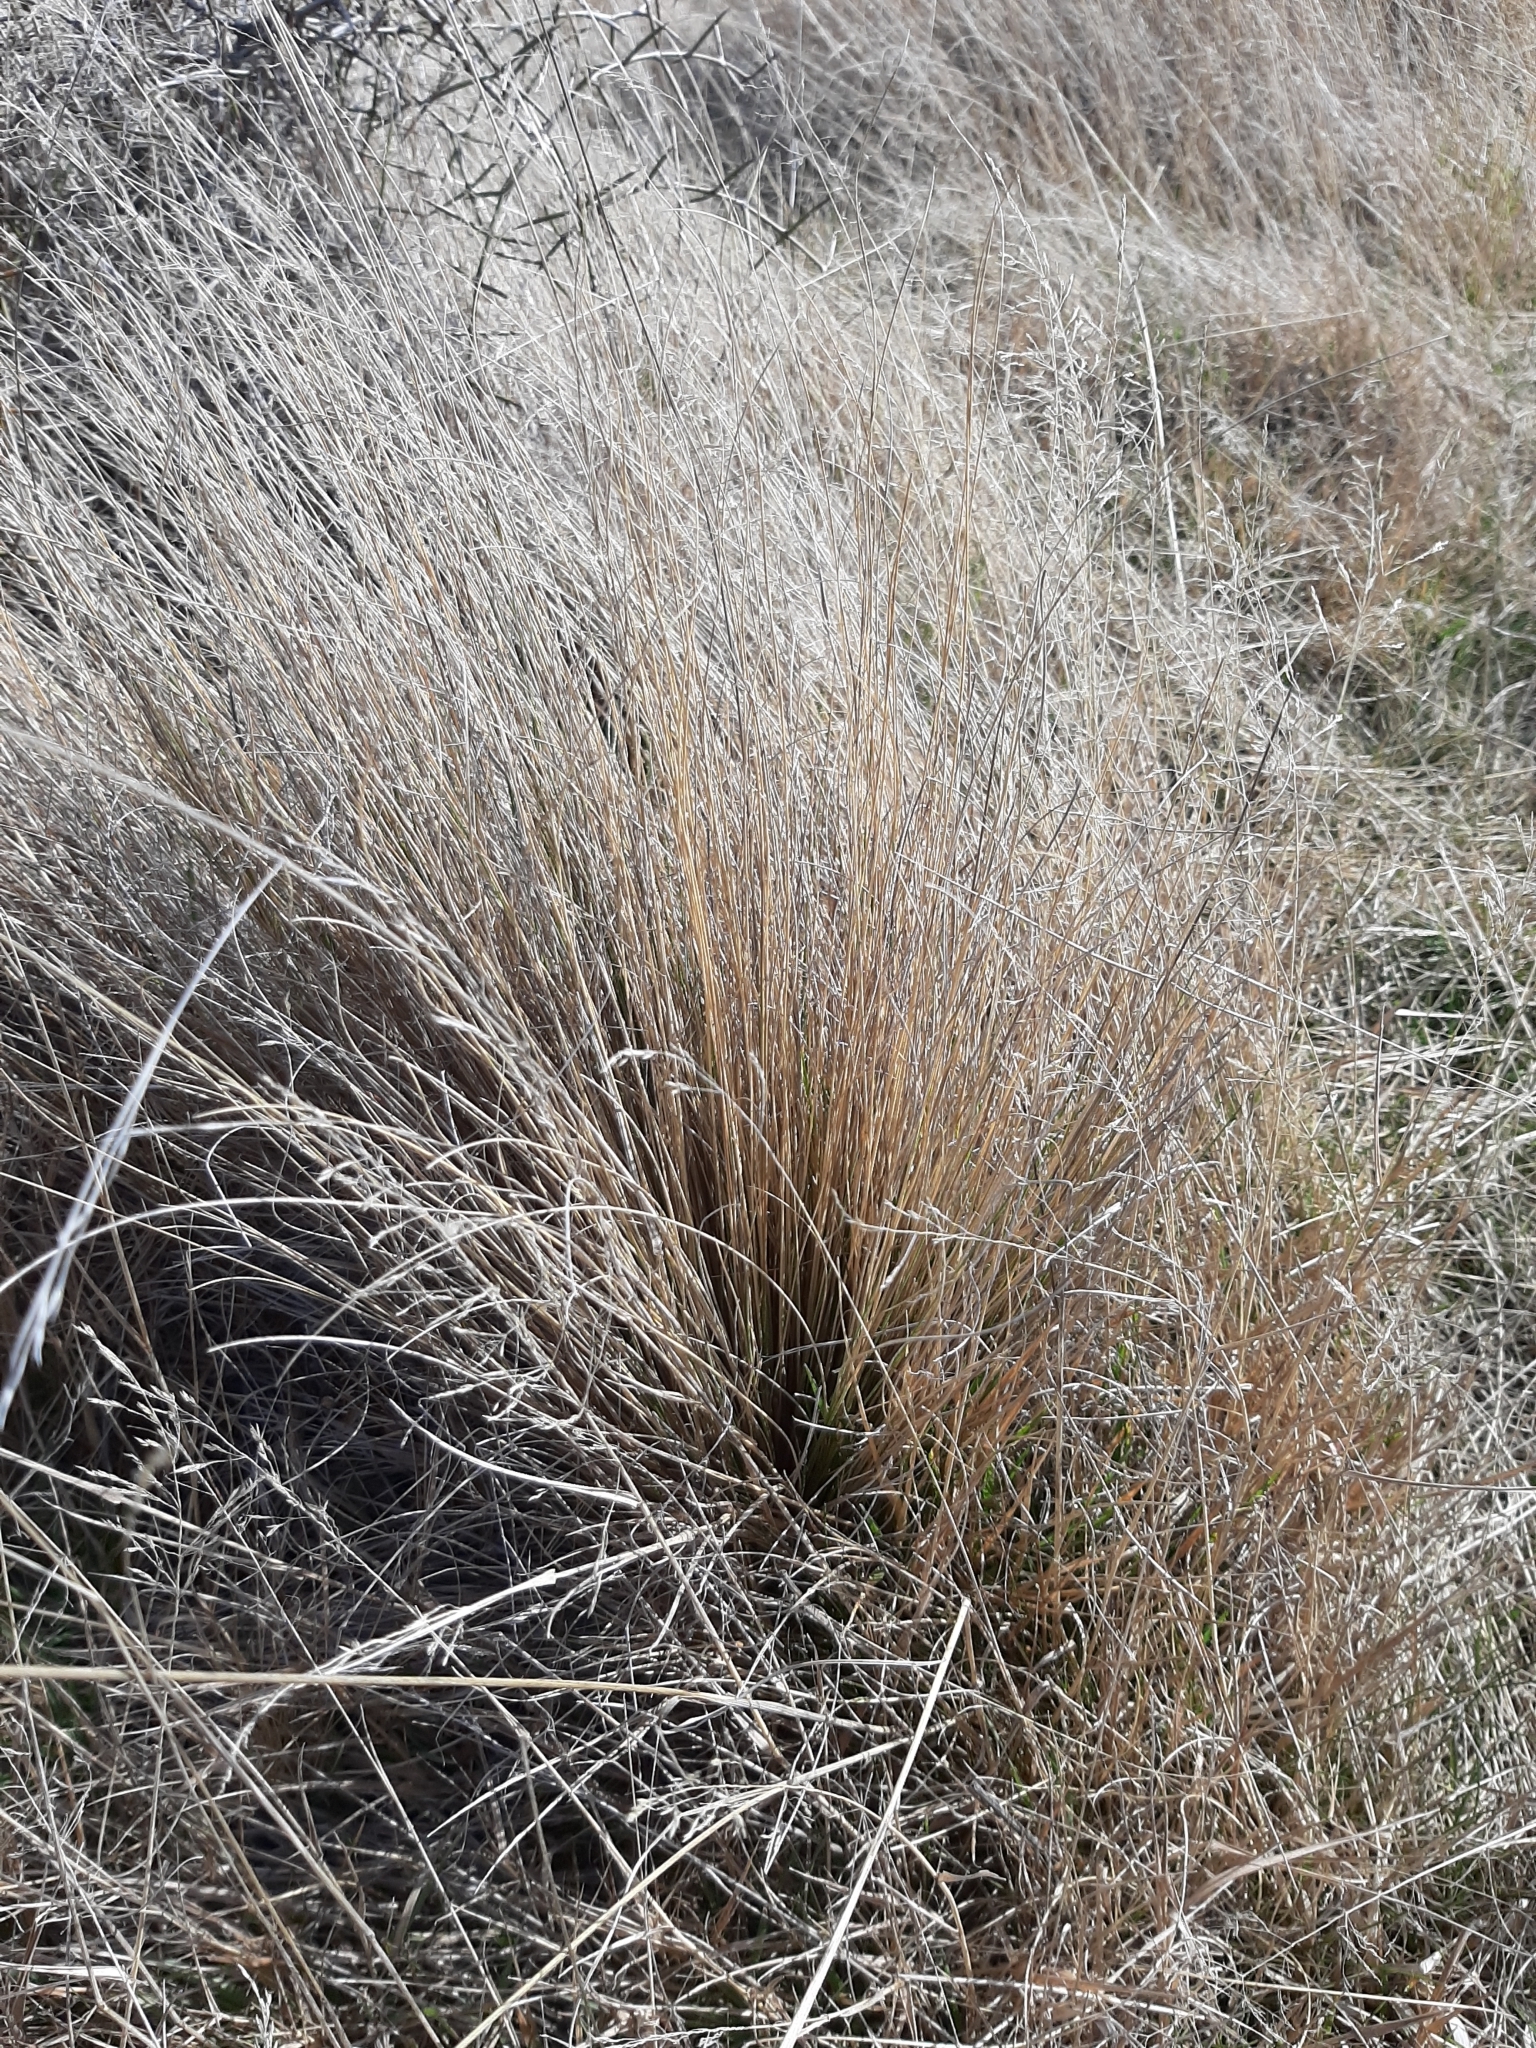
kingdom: Plantae
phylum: Tracheophyta
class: Liliopsida
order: Poales
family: Poaceae
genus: Festuca
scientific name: Festuca novae-zelandiae
